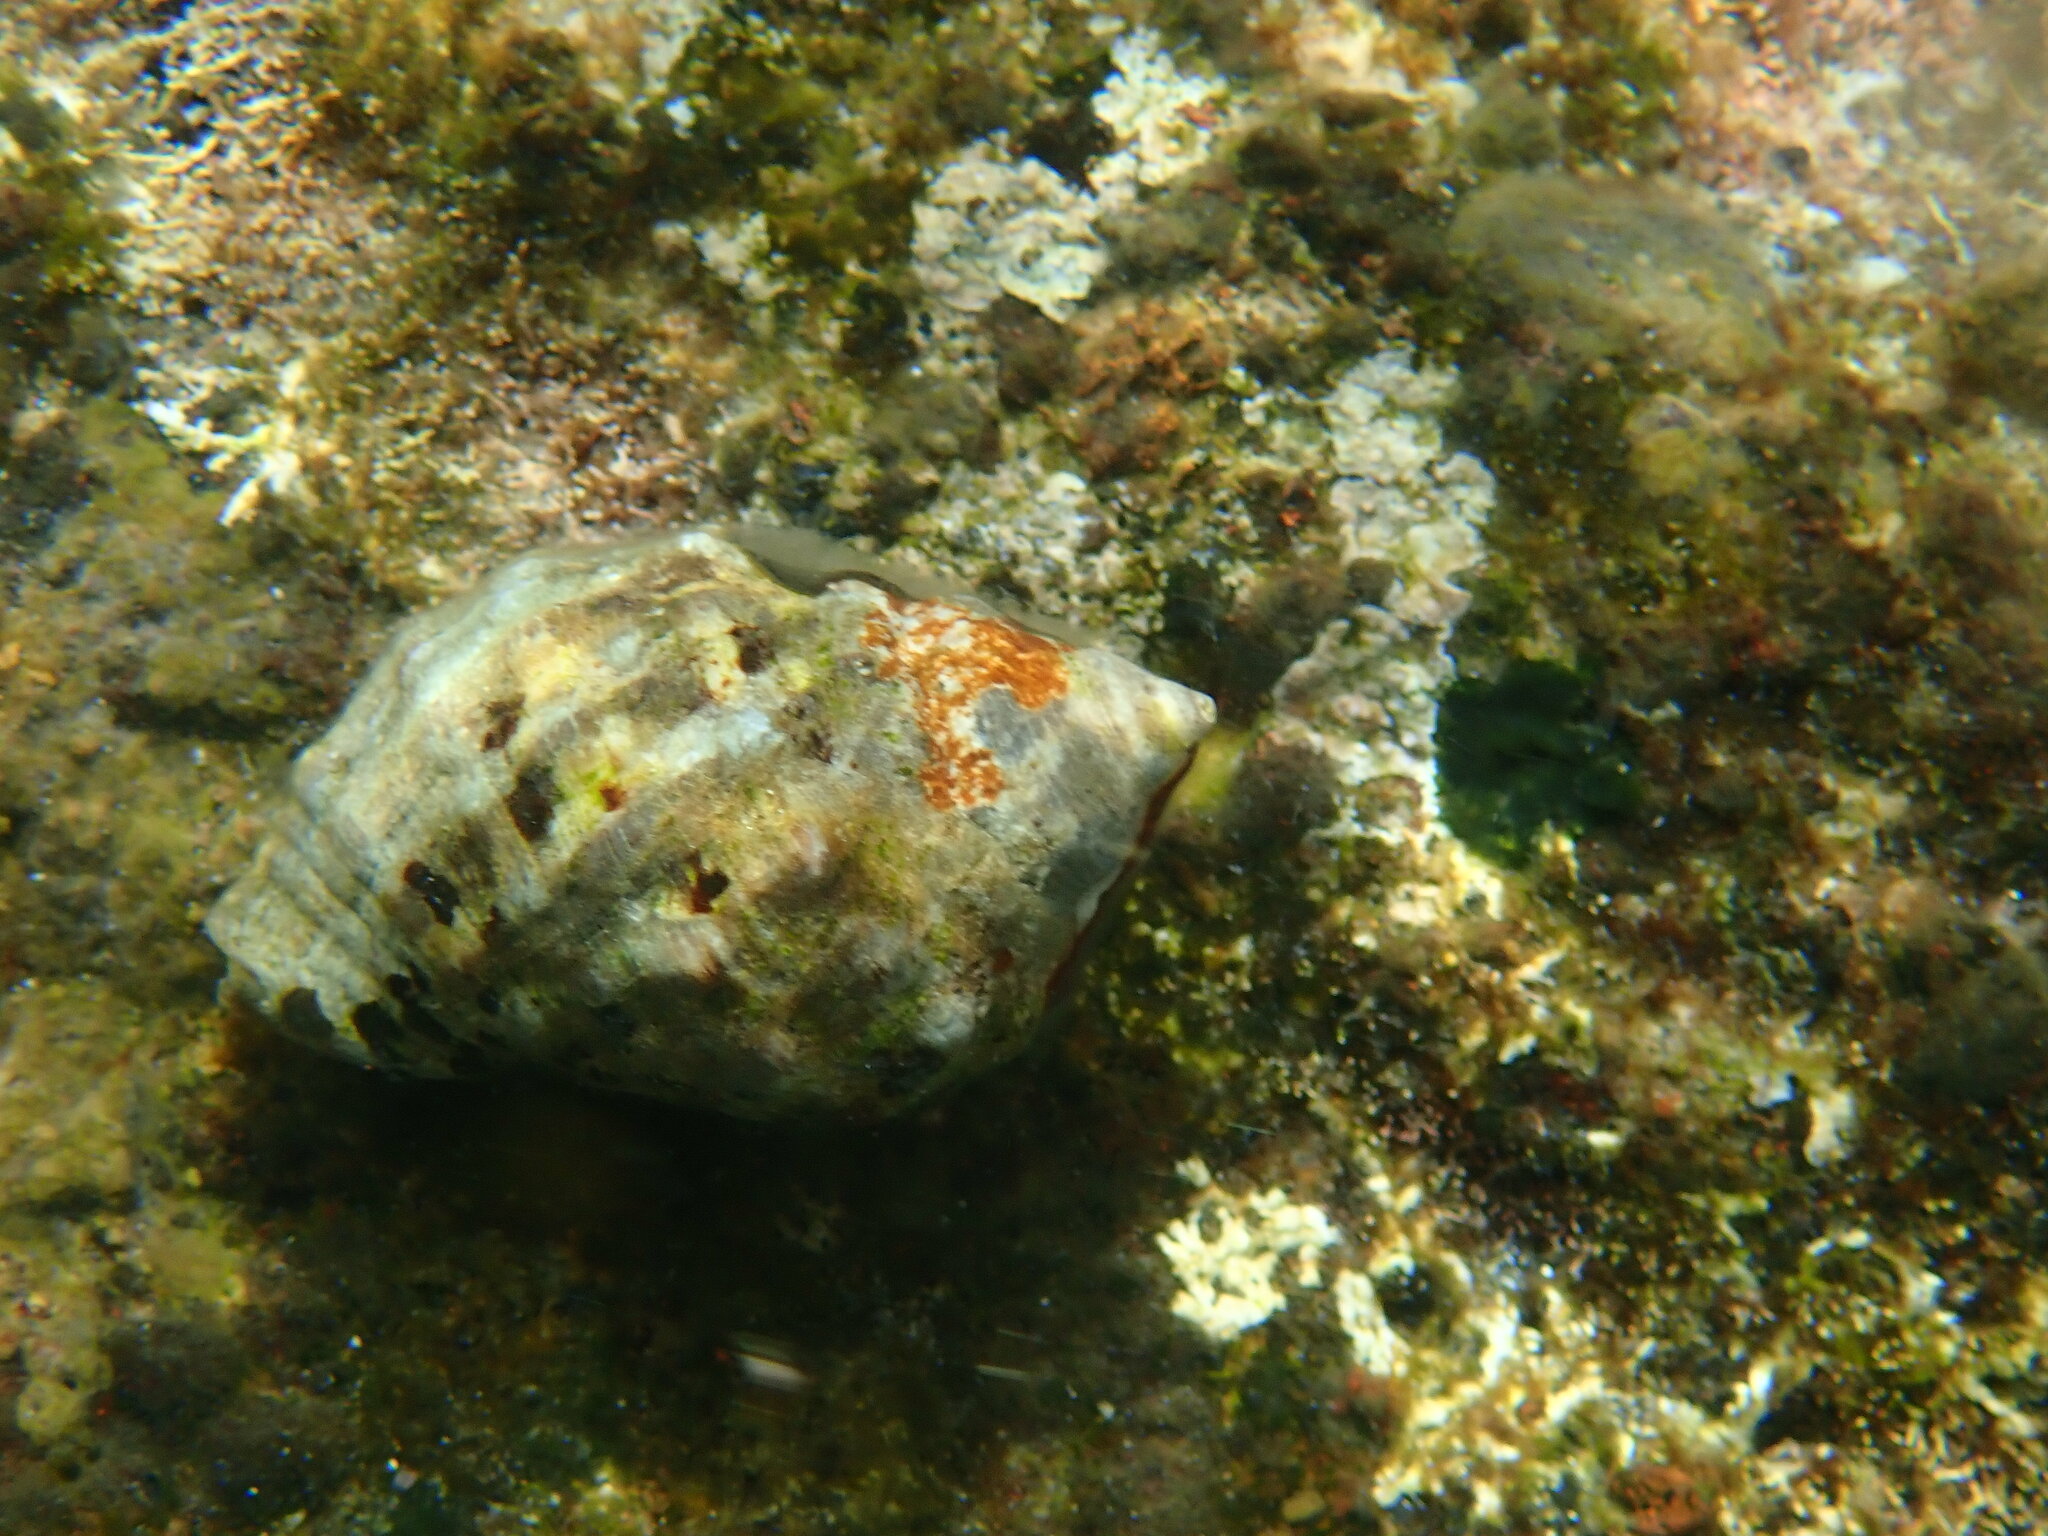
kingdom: Animalia
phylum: Mollusca
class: Gastropoda
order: Neogastropoda
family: Muricidae
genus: Stramonita
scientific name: Stramonita haemastoma
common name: Florida dog winkle
